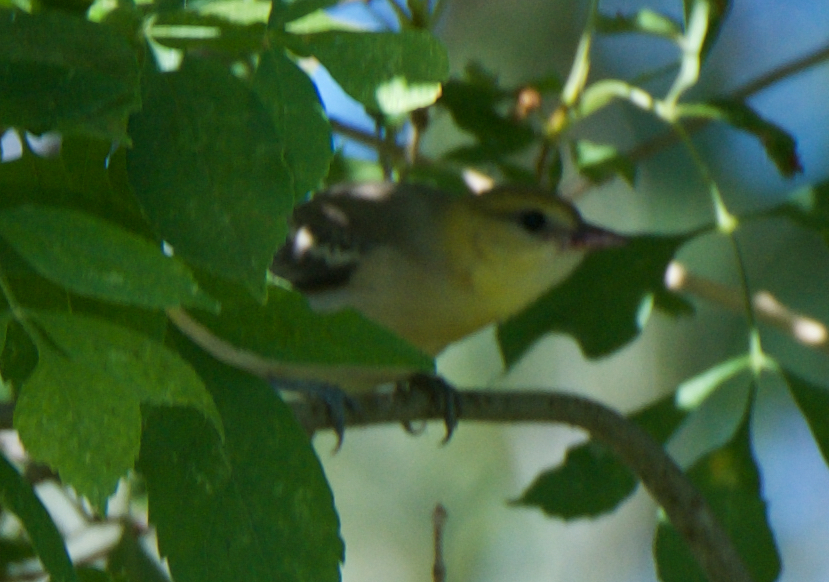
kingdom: Animalia
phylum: Chordata
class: Aves
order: Passeriformes
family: Icteridae
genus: Icterus
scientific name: Icterus bullockii
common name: Bullock's oriole
